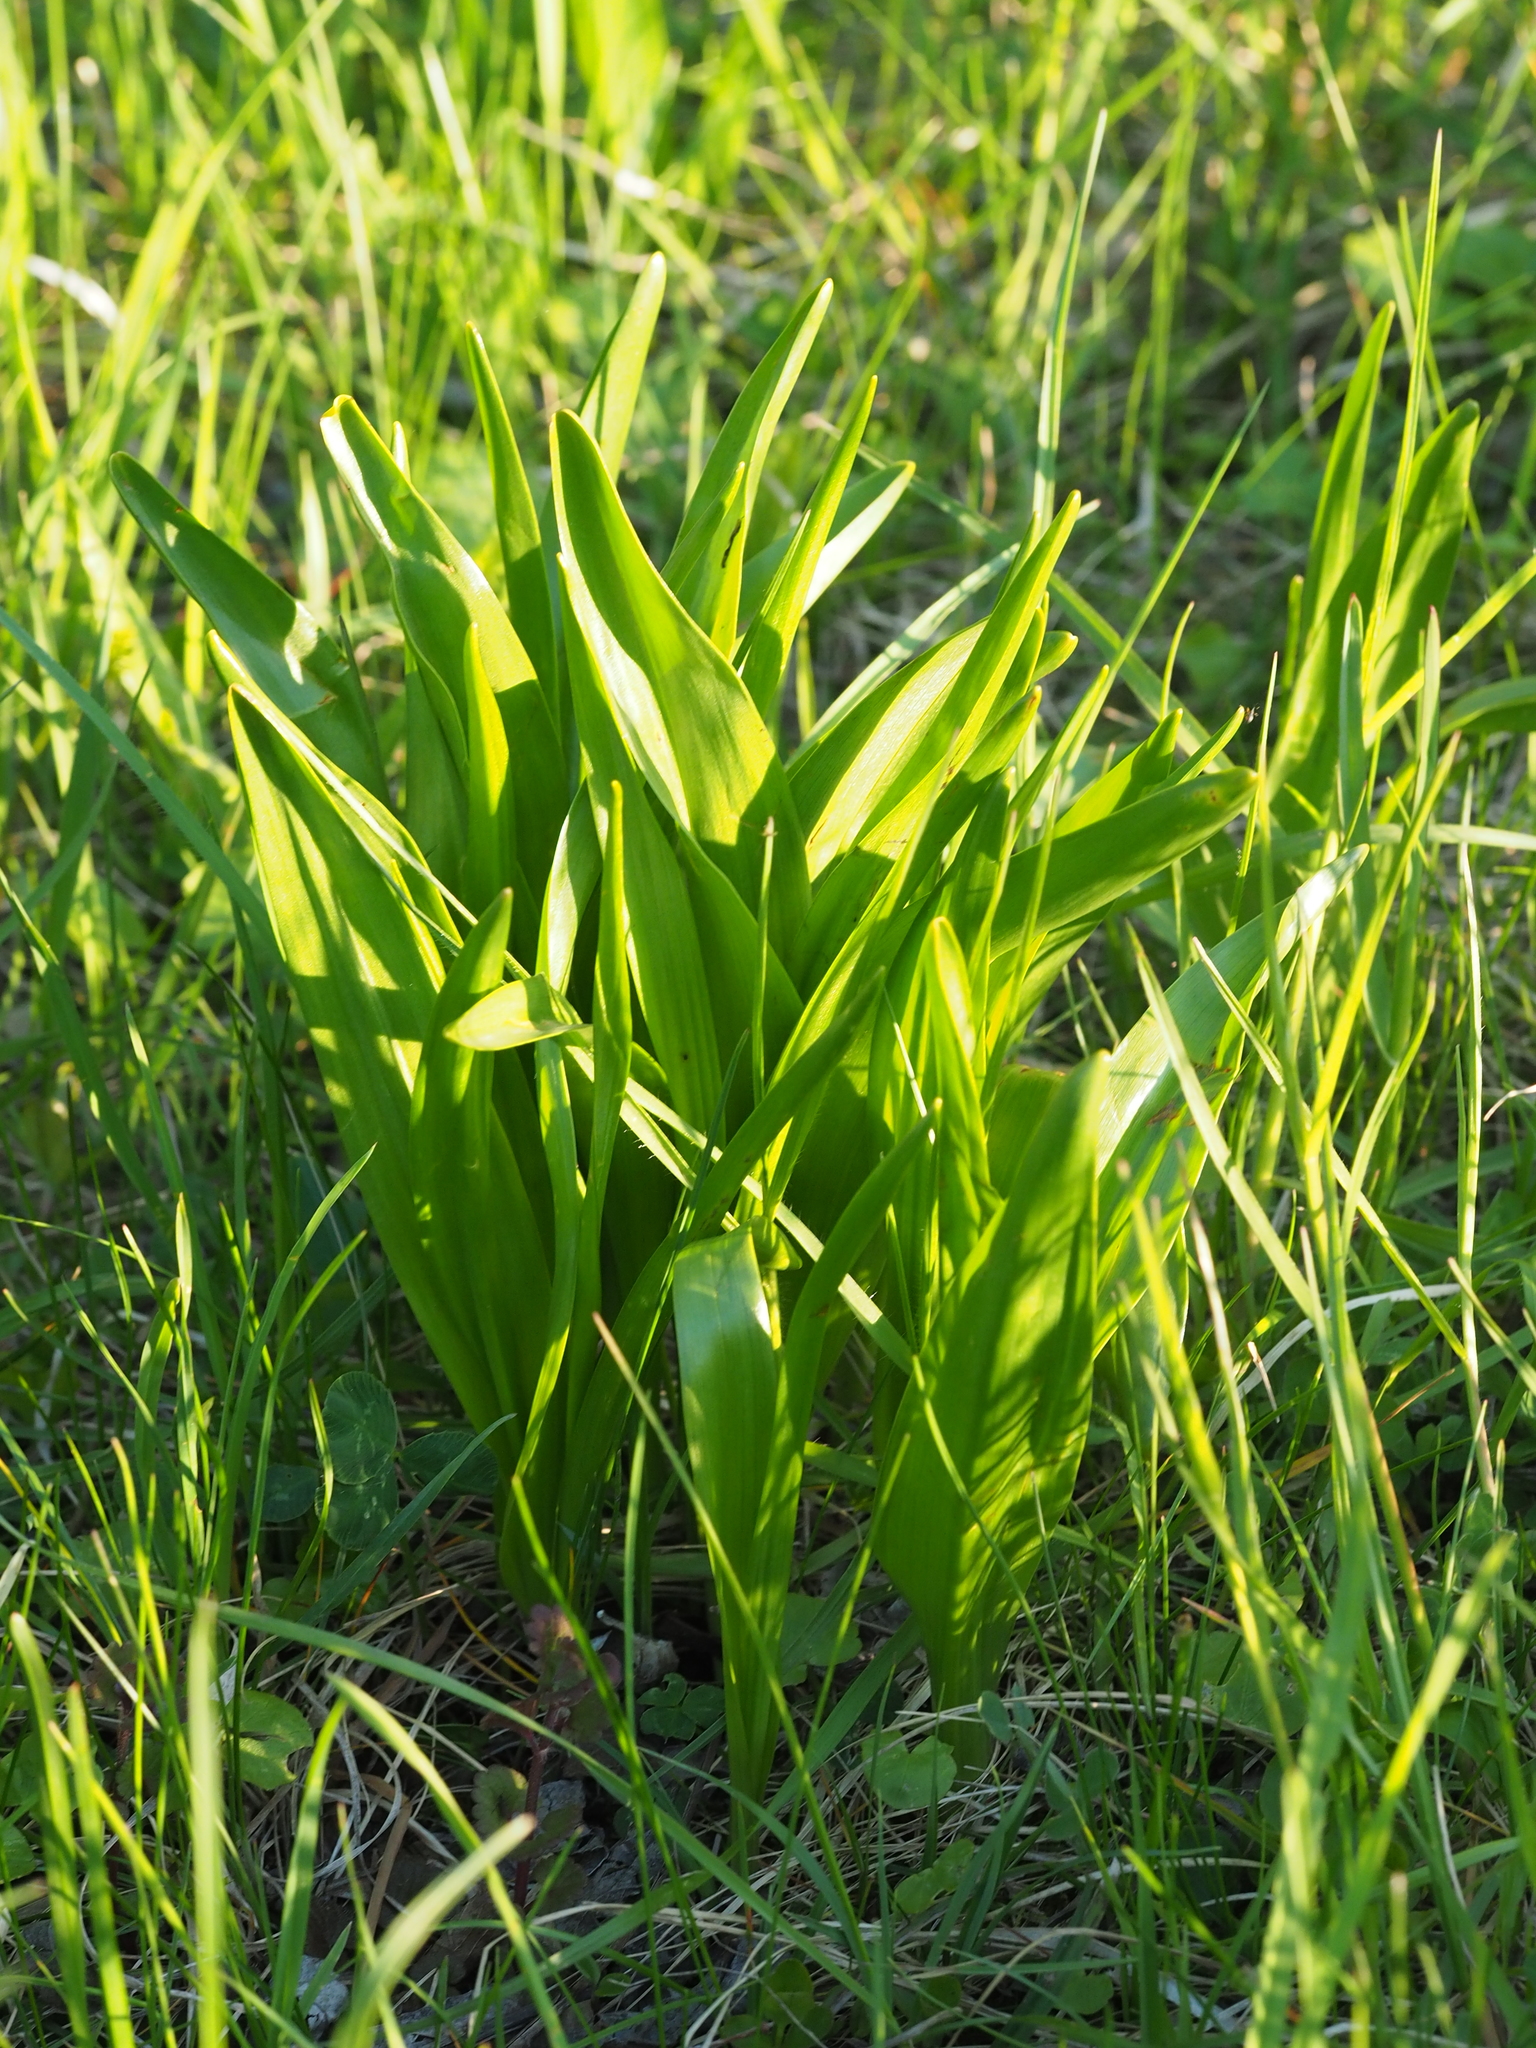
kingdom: Plantae
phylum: Tracheophyta
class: Liliopsida
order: Liliales
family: Colchicaceae
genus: Colchicum
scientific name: Colchicum autumnale
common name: Autumn crocus
